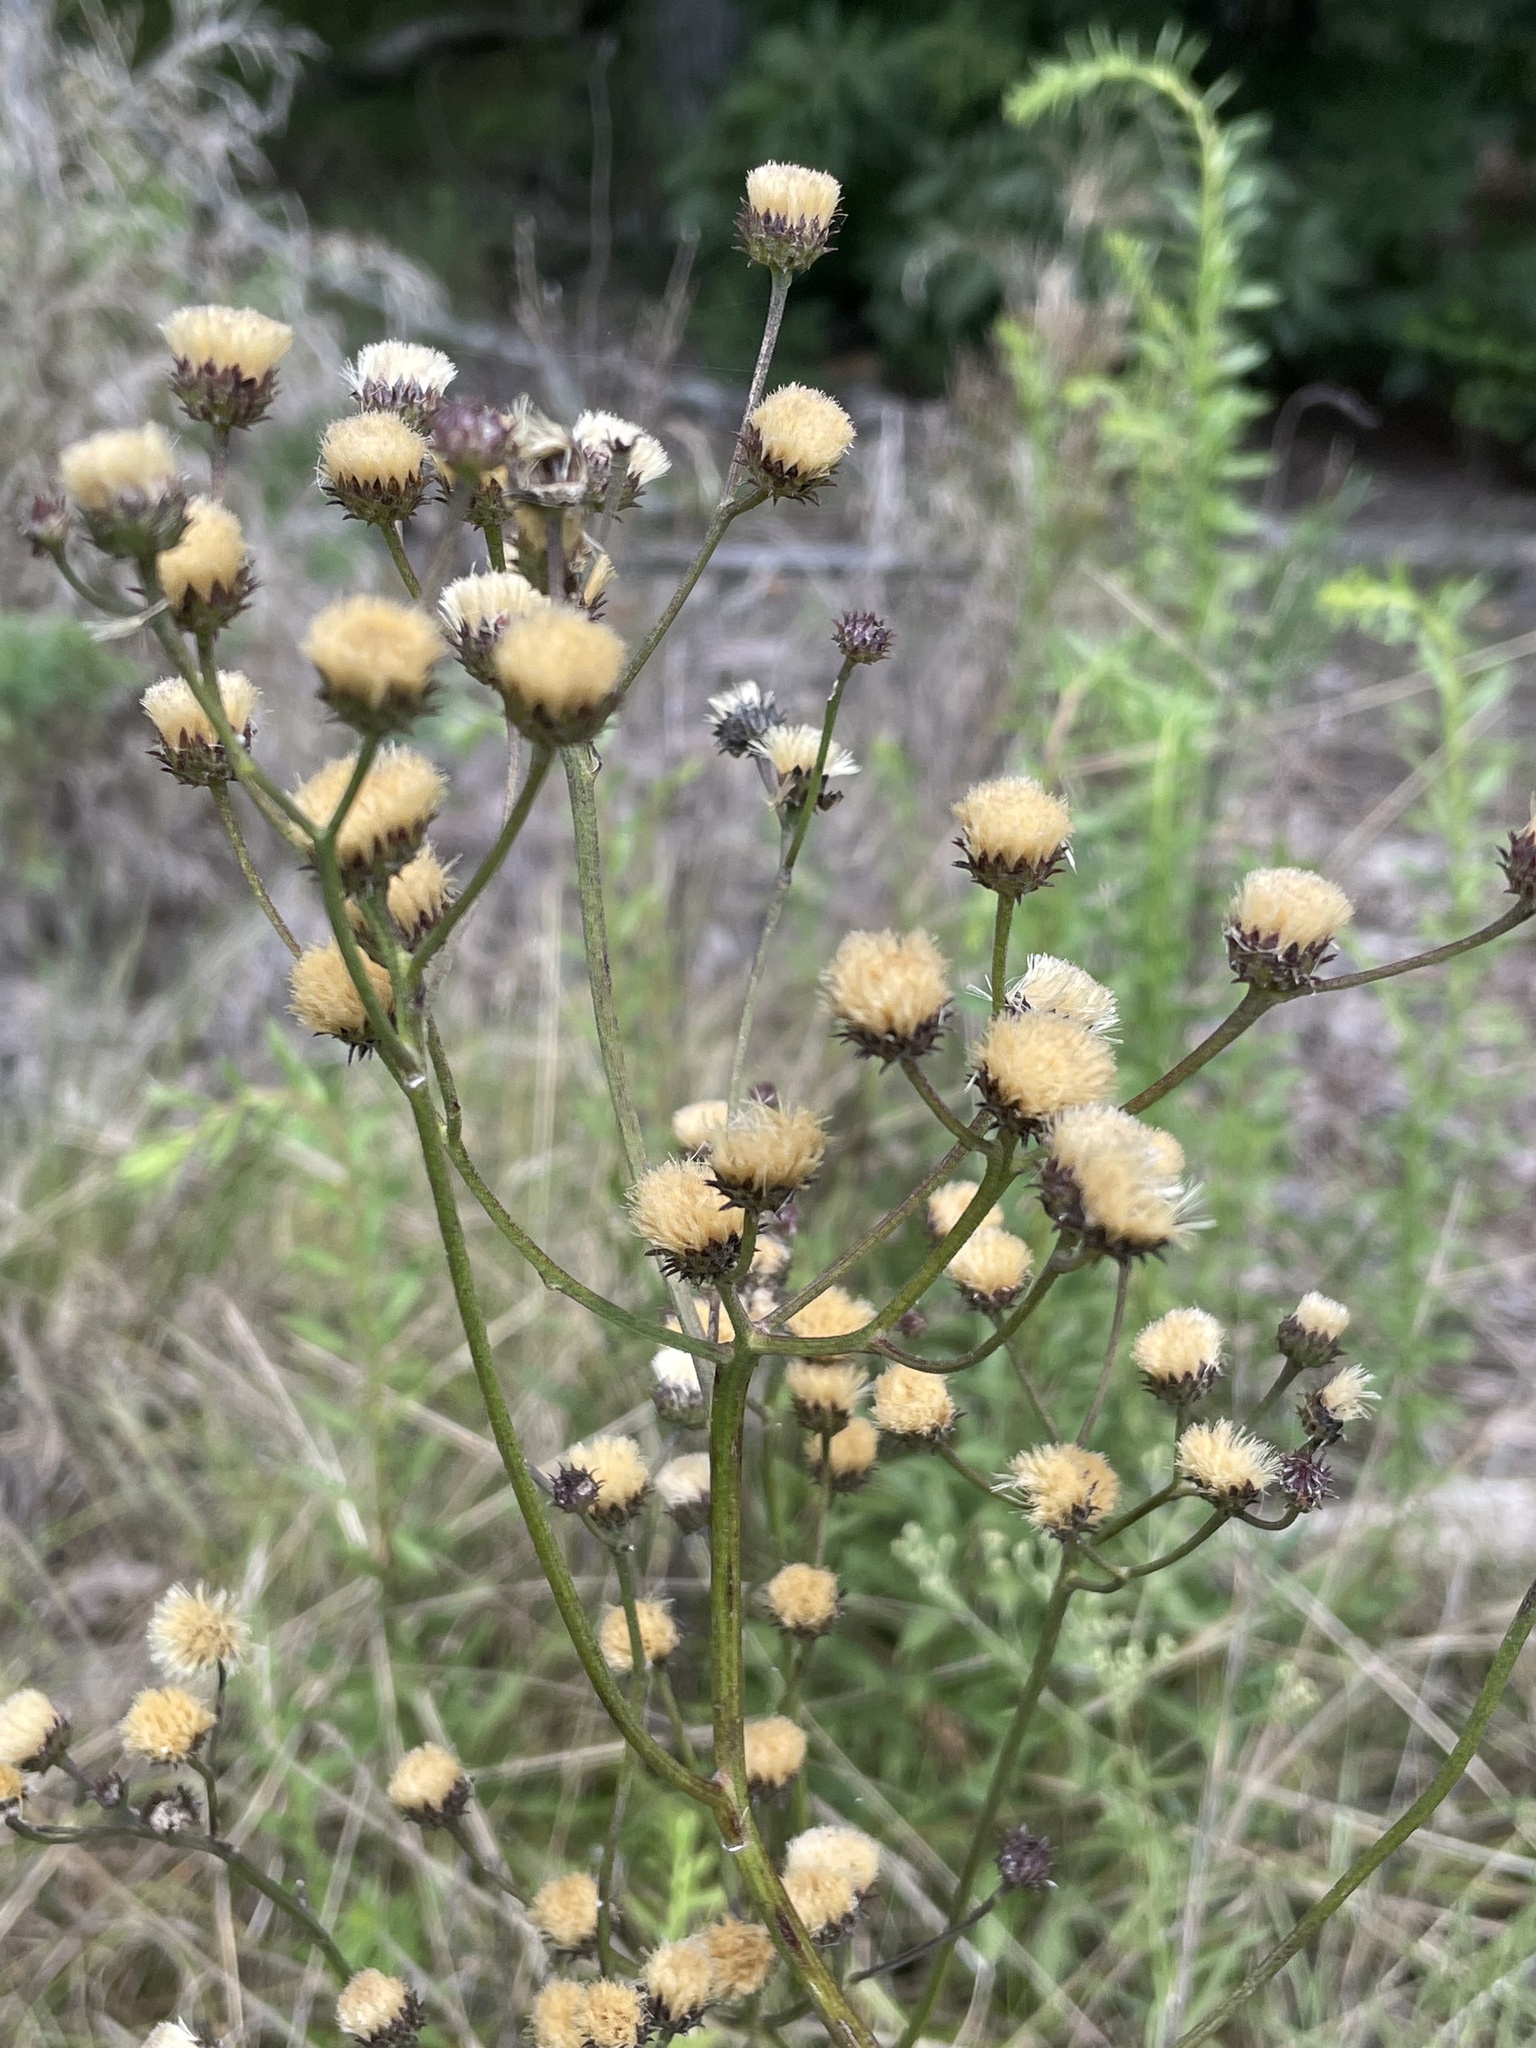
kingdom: Plantae
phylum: Tracheophyta
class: Magnoliopsida
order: Asterales
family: Asteraceae
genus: Vernonia
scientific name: Vernonia acaulis
